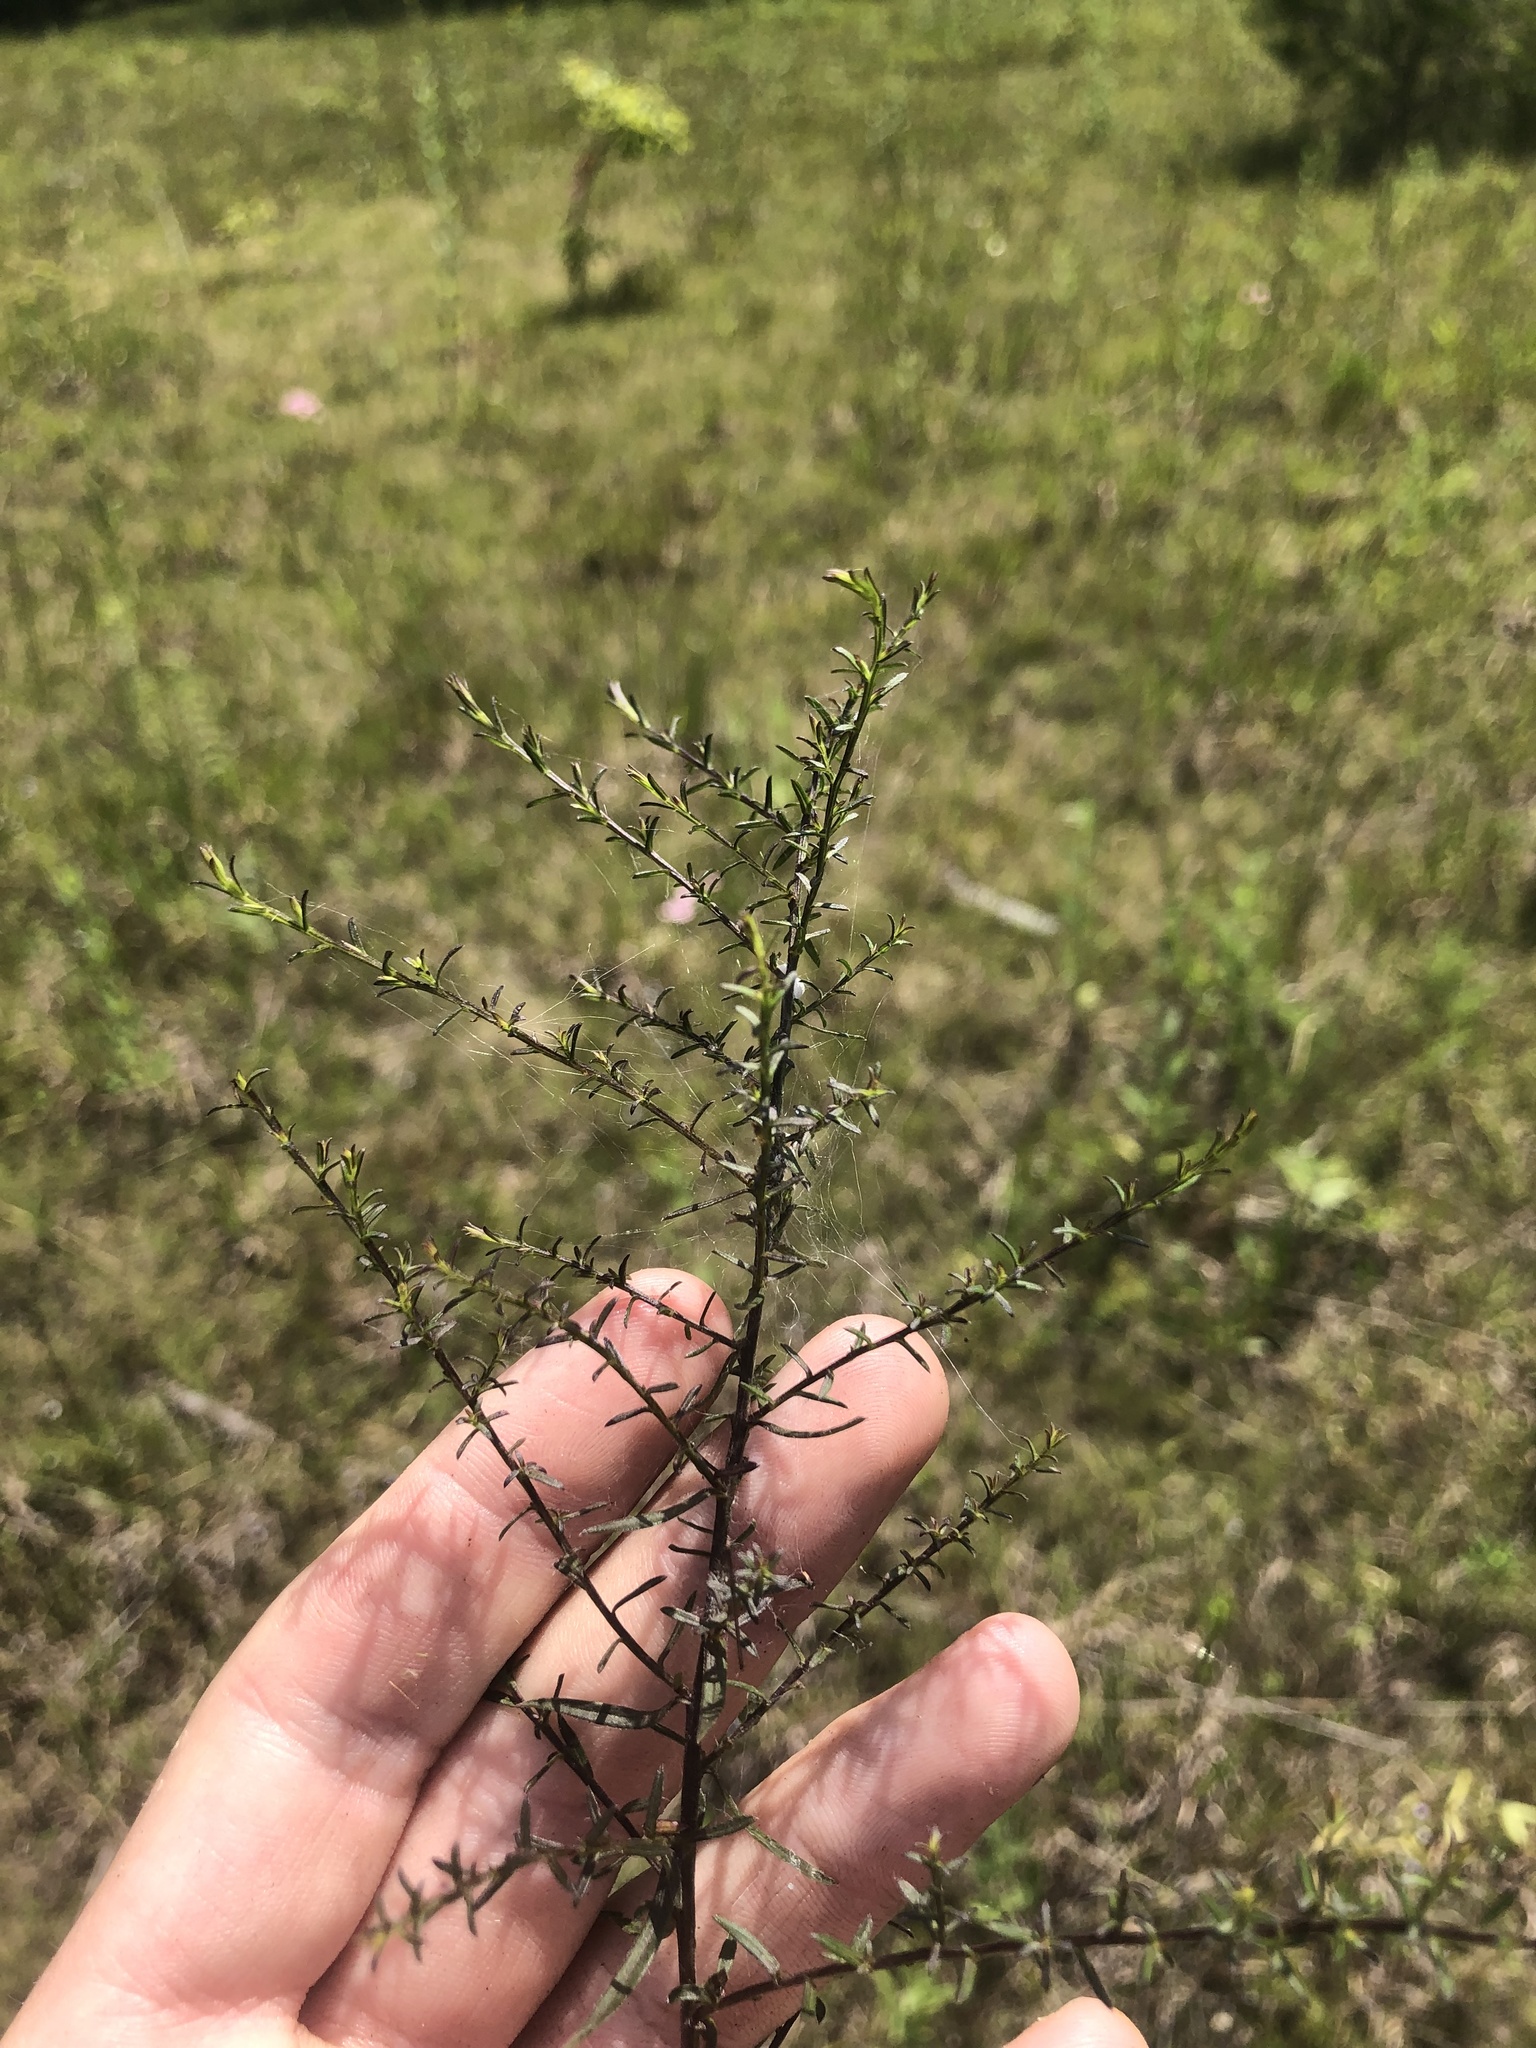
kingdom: Plantae
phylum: Tracheophyta
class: Magnoliopsida
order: Asterales
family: Asteraceae
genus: Symphyotrichum
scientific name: Symphyotrichum dumosum
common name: Bushy aster
